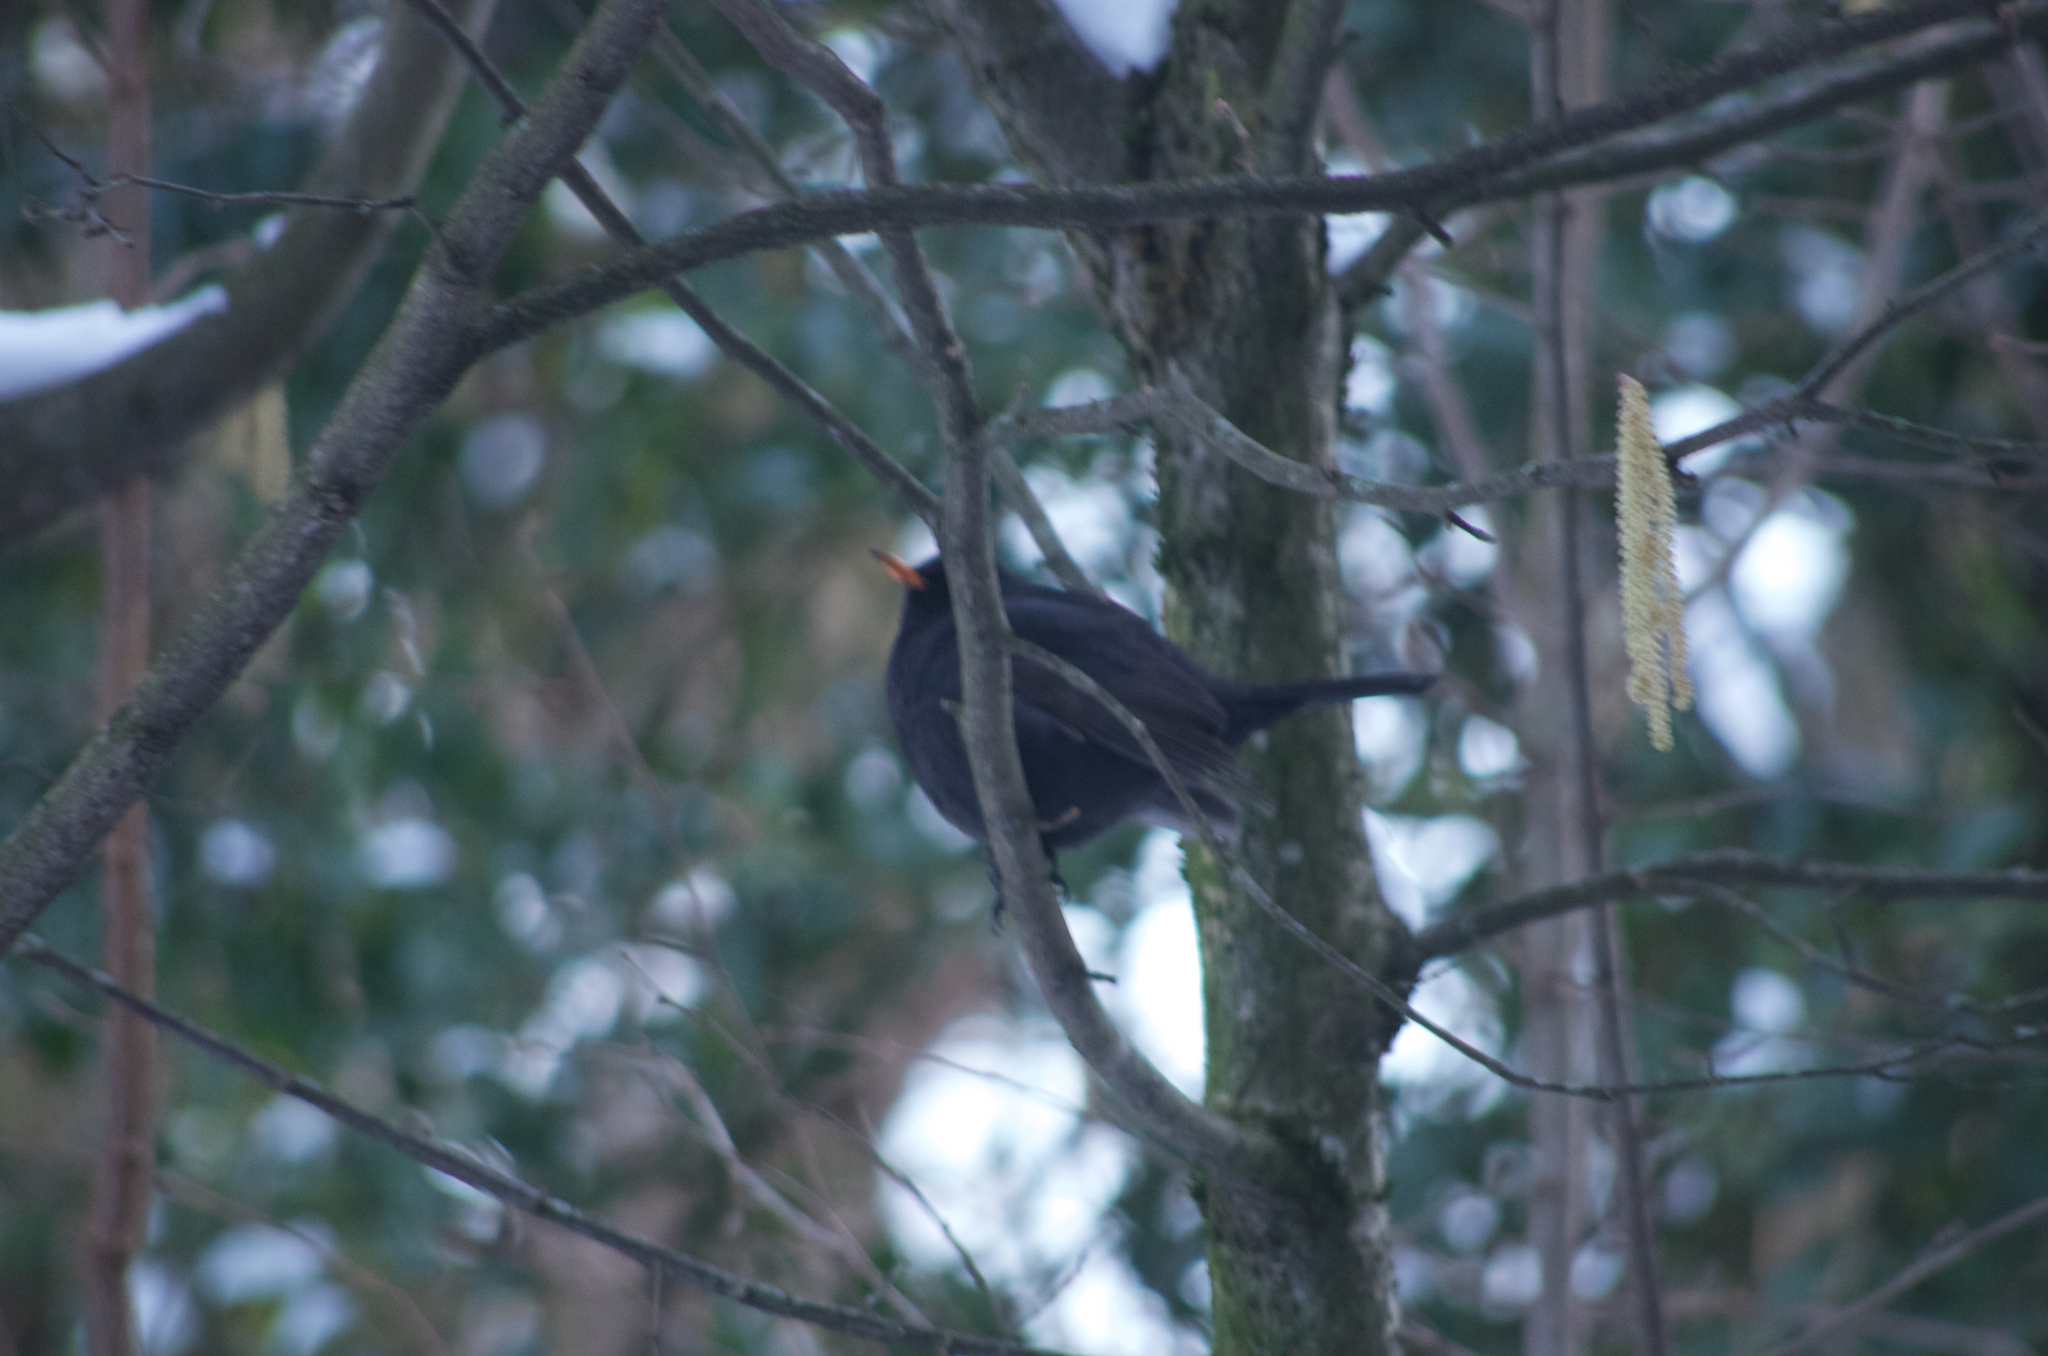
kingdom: Animalia
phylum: Chordata
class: Aves
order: Passeriformes
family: Turdidae
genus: Turdus
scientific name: Turdus merula
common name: Common blackbird
